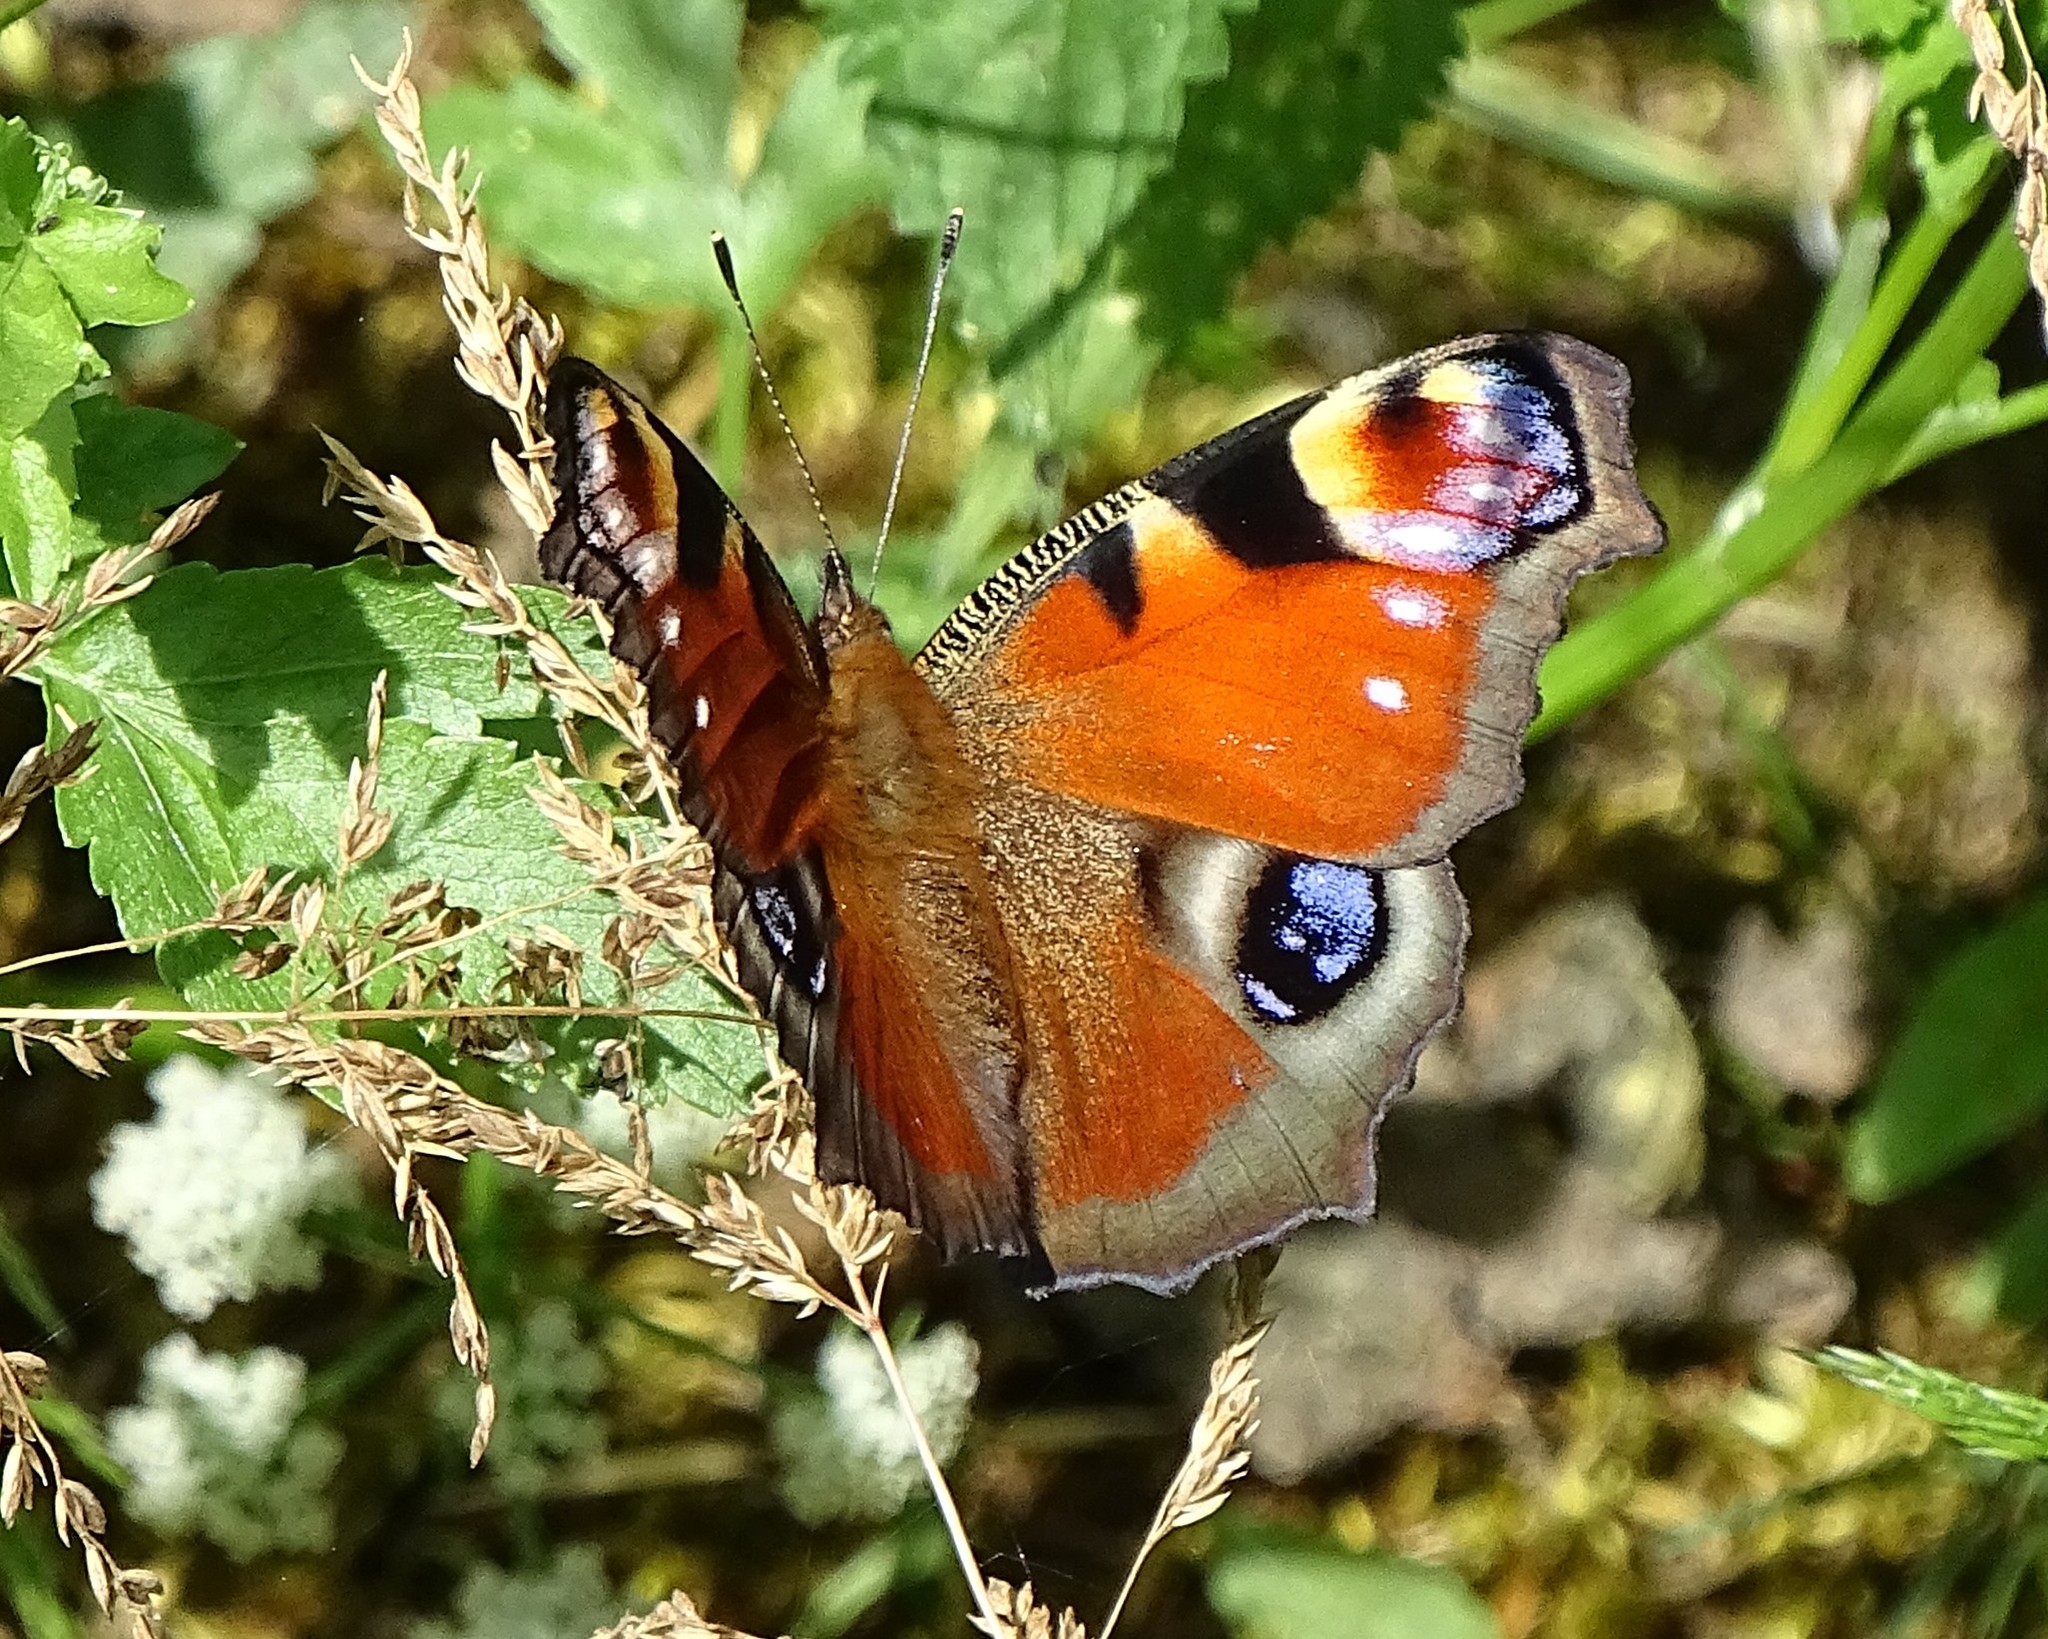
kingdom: Animalia
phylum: Arthropoda
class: Insecta
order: Lepidoptera
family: Nymphalidae
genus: Aglais
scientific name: Aglais io
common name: Peacock
